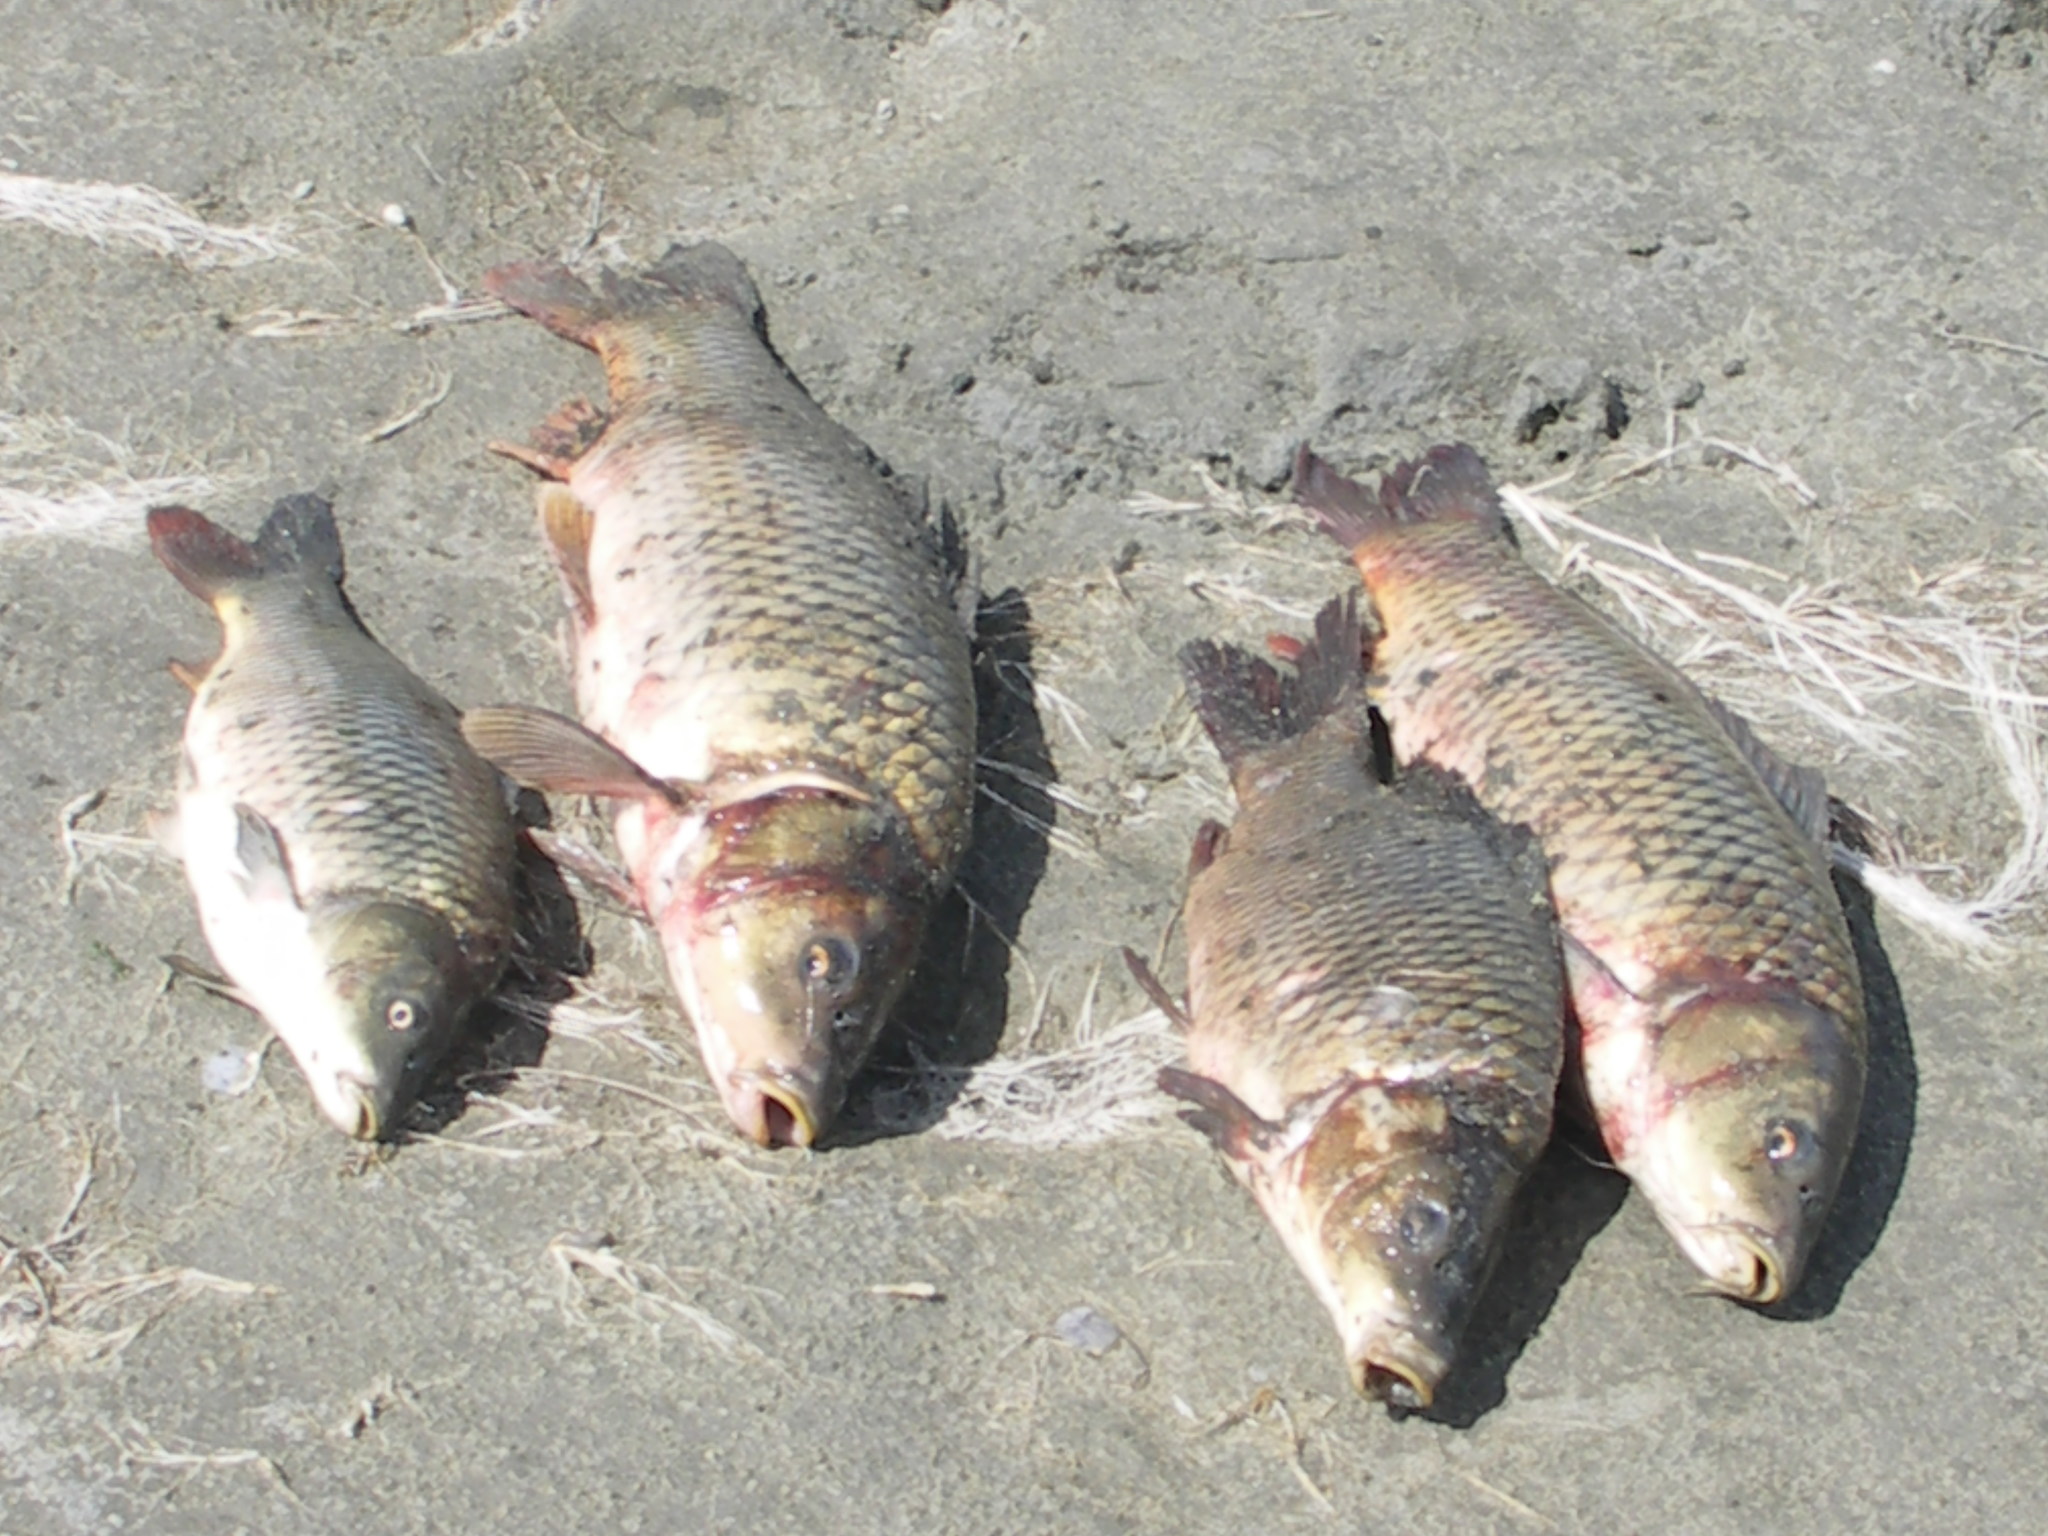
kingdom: Animalia
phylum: Chordata
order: Cypriniformes
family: Cyprinidae
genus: Cyprinus
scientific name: Cyprinus rubrofuscus
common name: Koi
